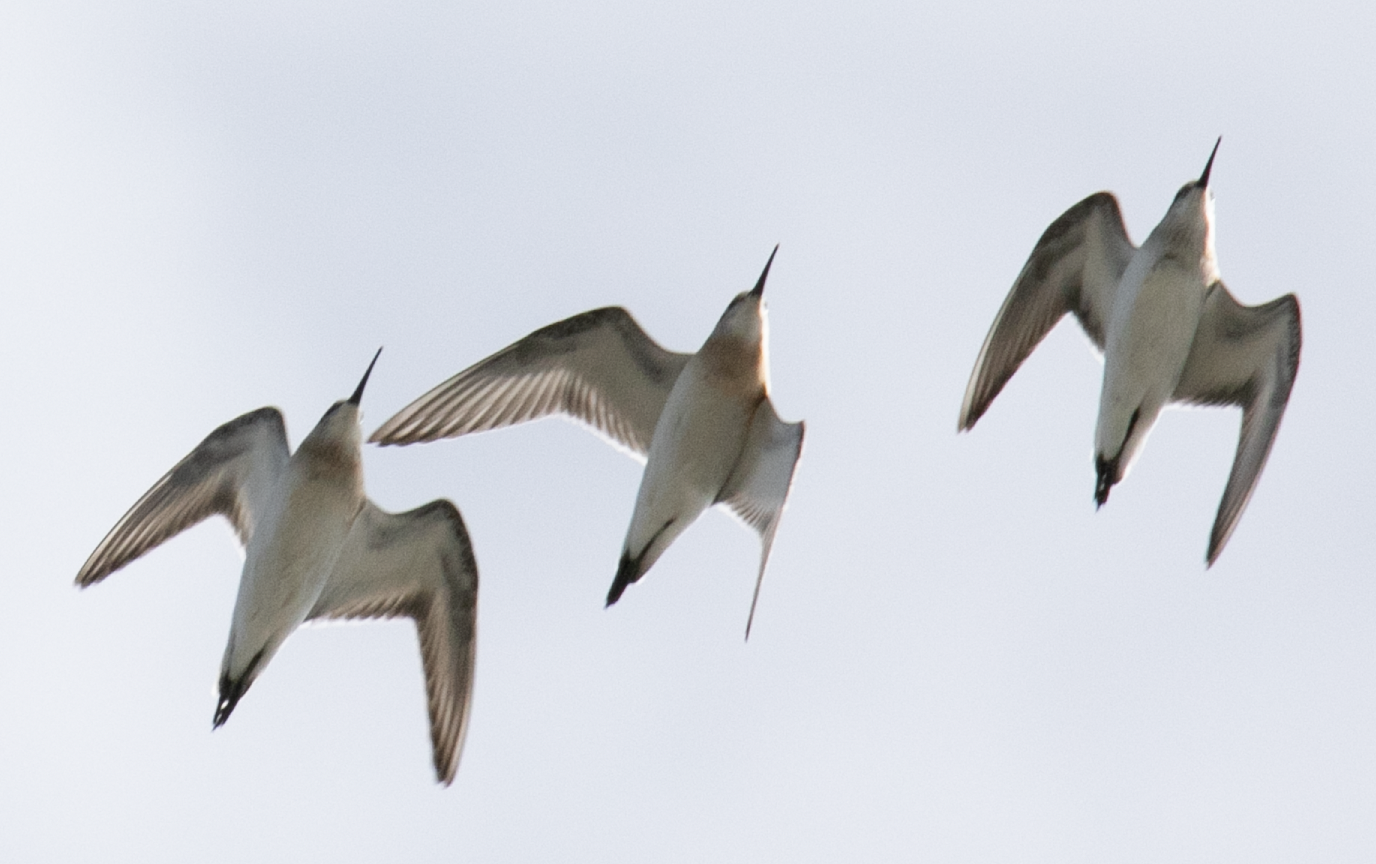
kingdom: Animalia
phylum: Chordata
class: Aves
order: Charadriiformes
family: Scolopacidae
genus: Calidris
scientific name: Calidris ferruginea
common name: Curlew sandpiper
